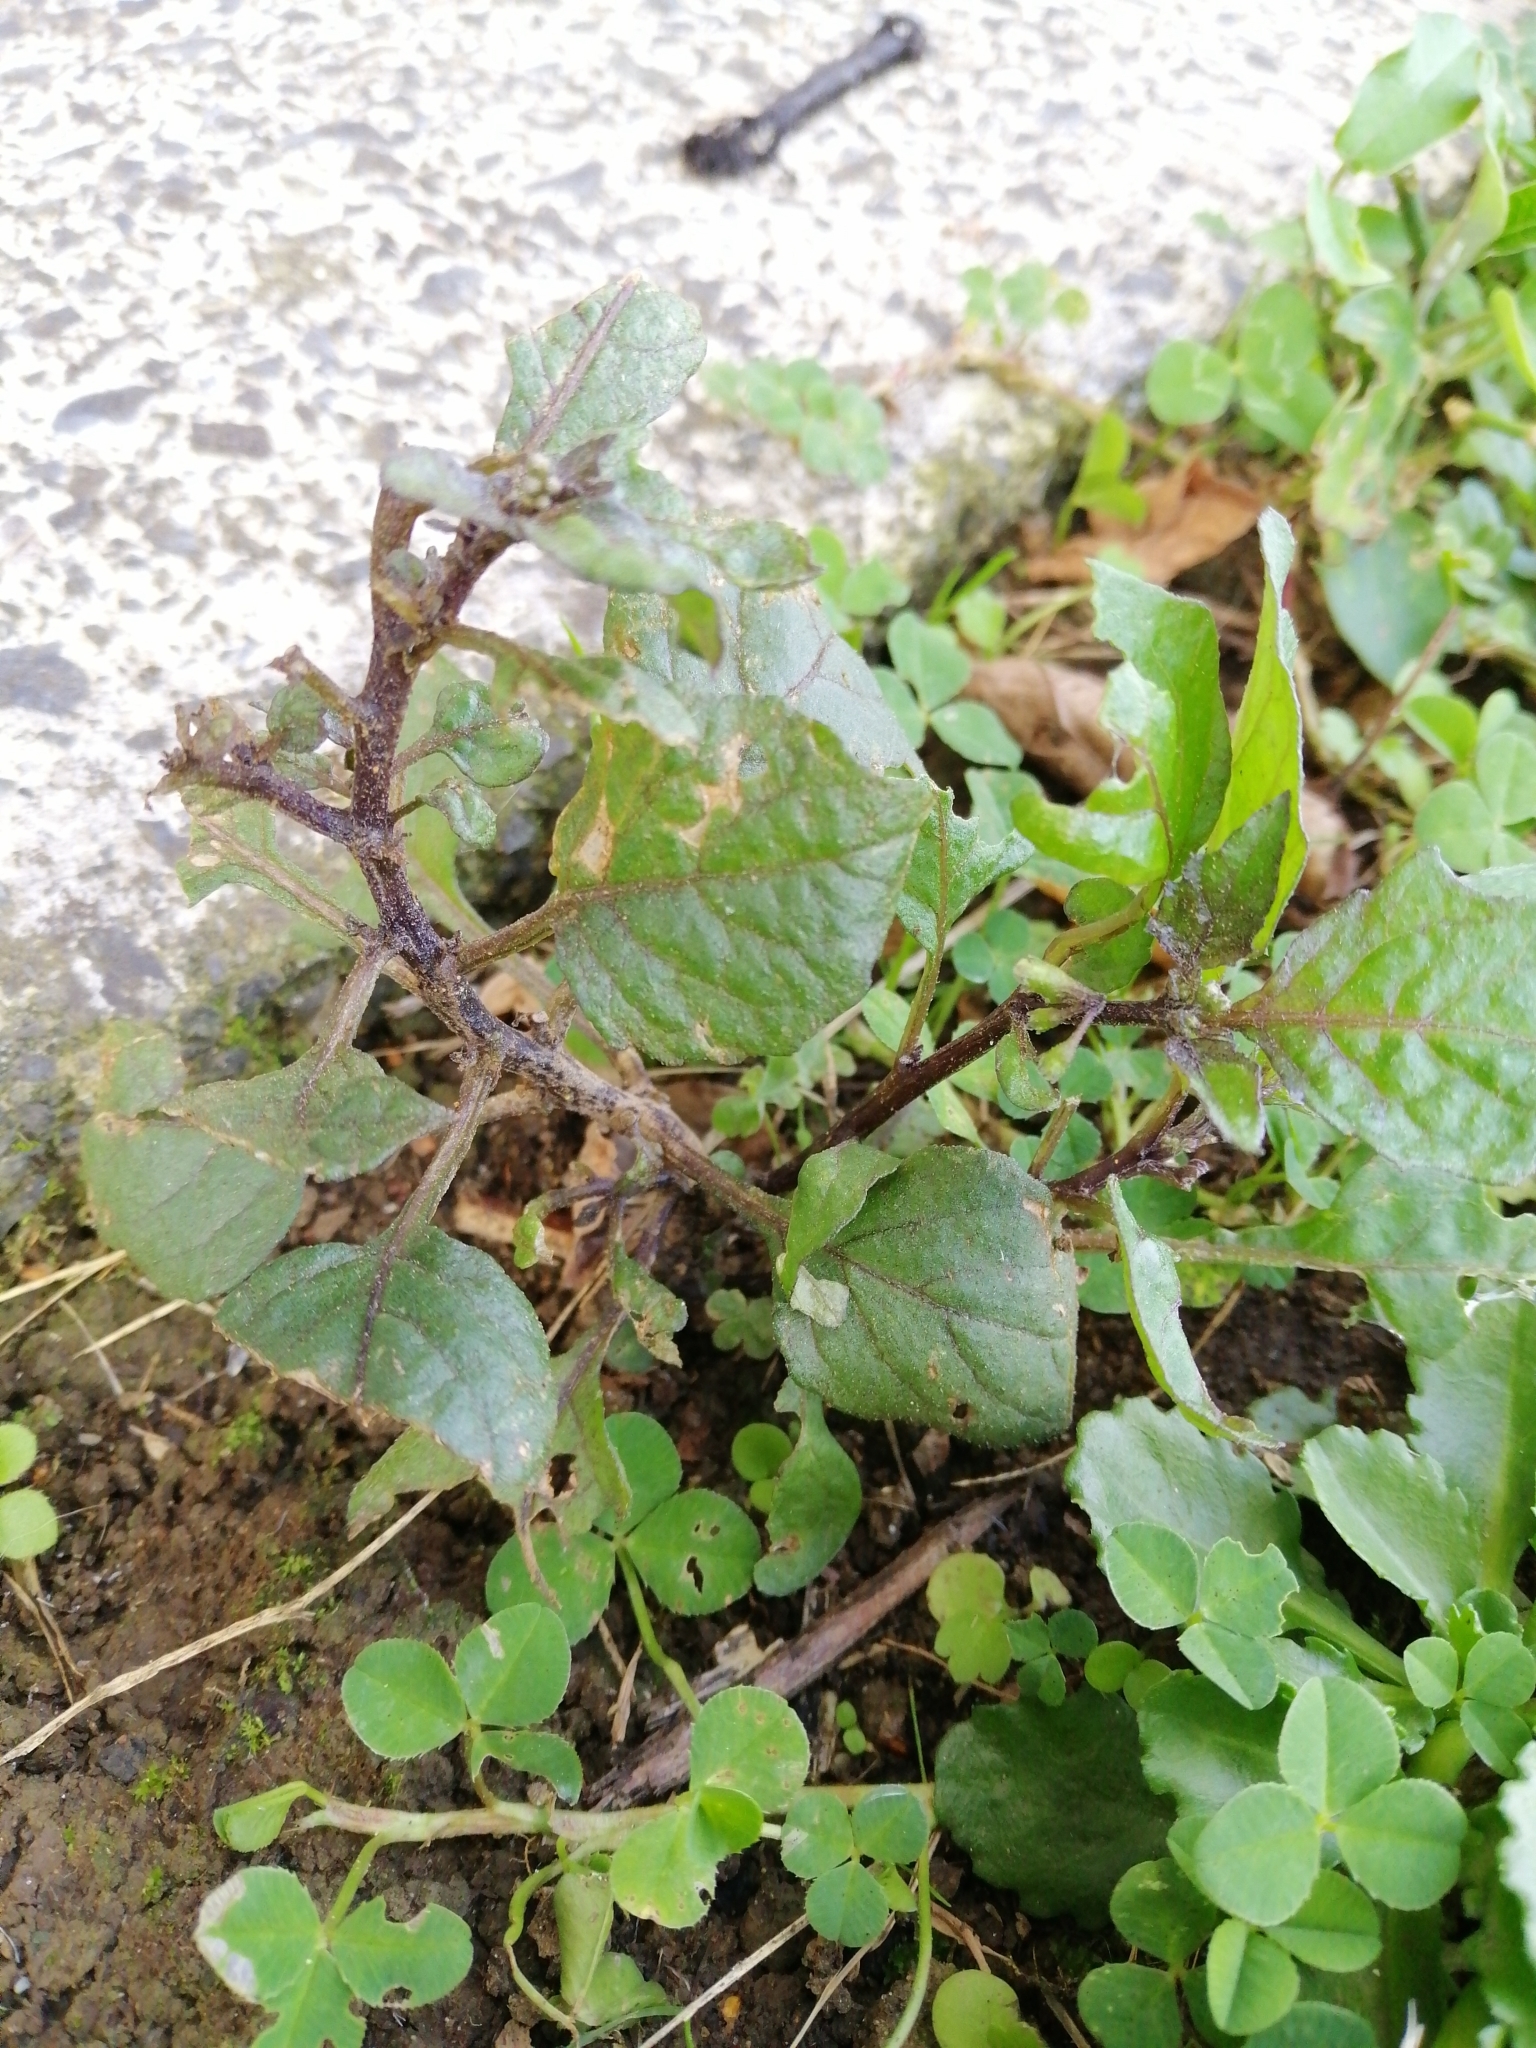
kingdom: Plantae
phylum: Tracheophyta
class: Magnoliopsida
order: Solanales
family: Solanaceae
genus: Solanum
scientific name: Solanum nigrum
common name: Black nightshade
